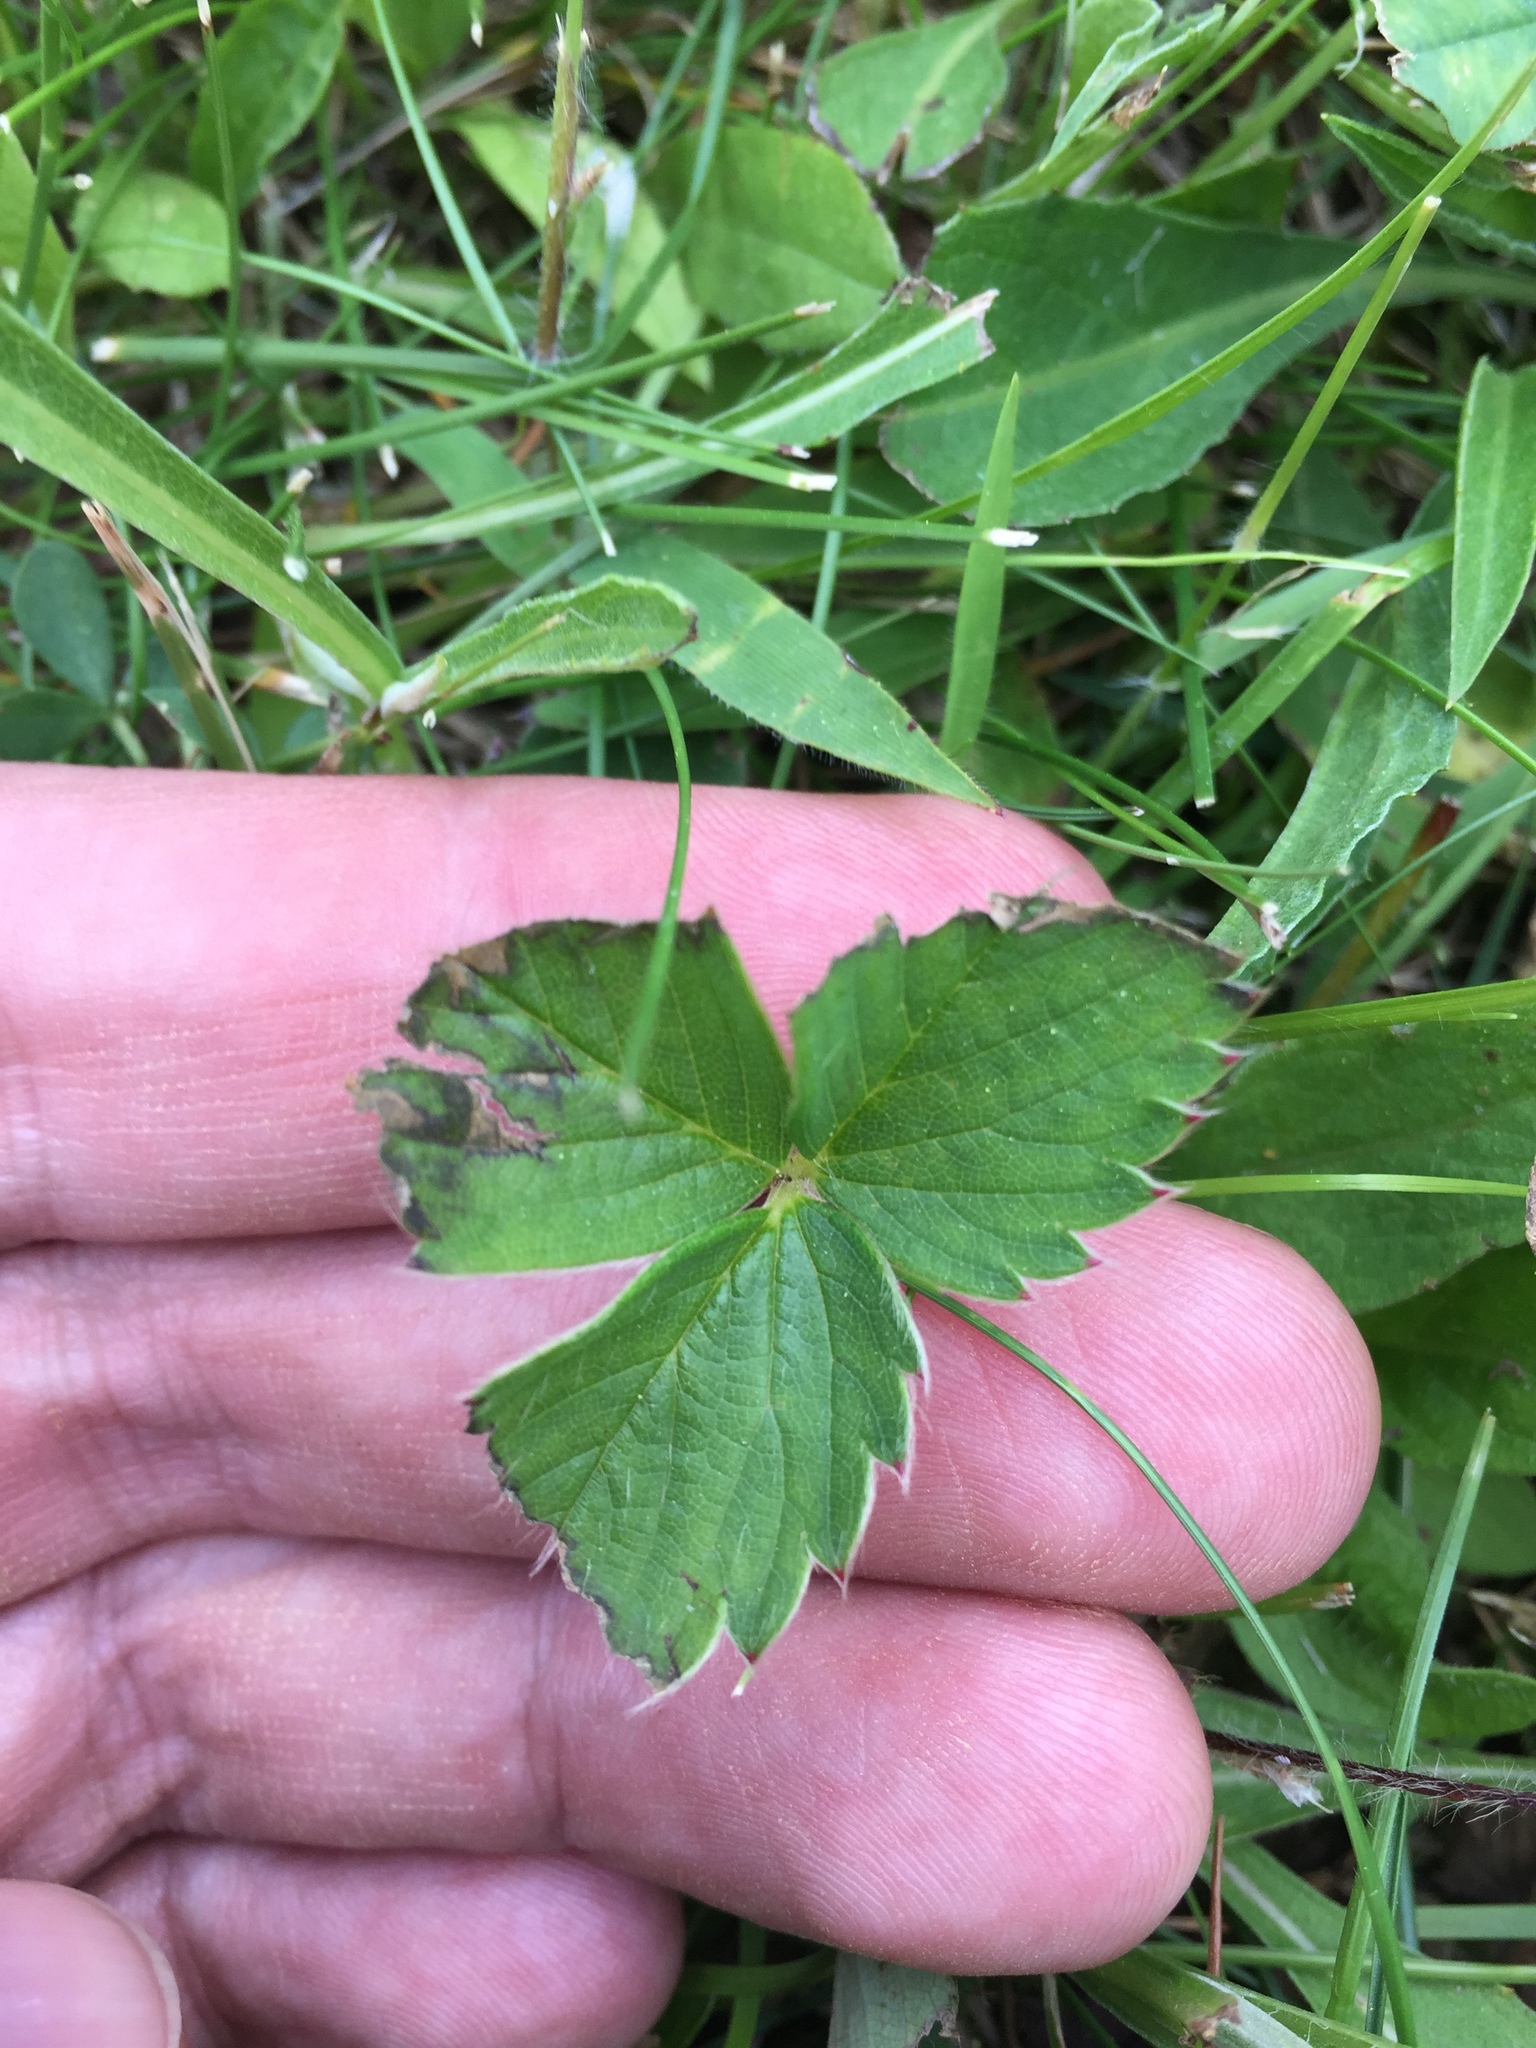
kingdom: Plantae
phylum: Tracheophyta
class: Magnoliopsida
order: Rosales
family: Rosaceae
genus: Fragaria
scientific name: Fragaria vesca
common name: Wild strawberry
